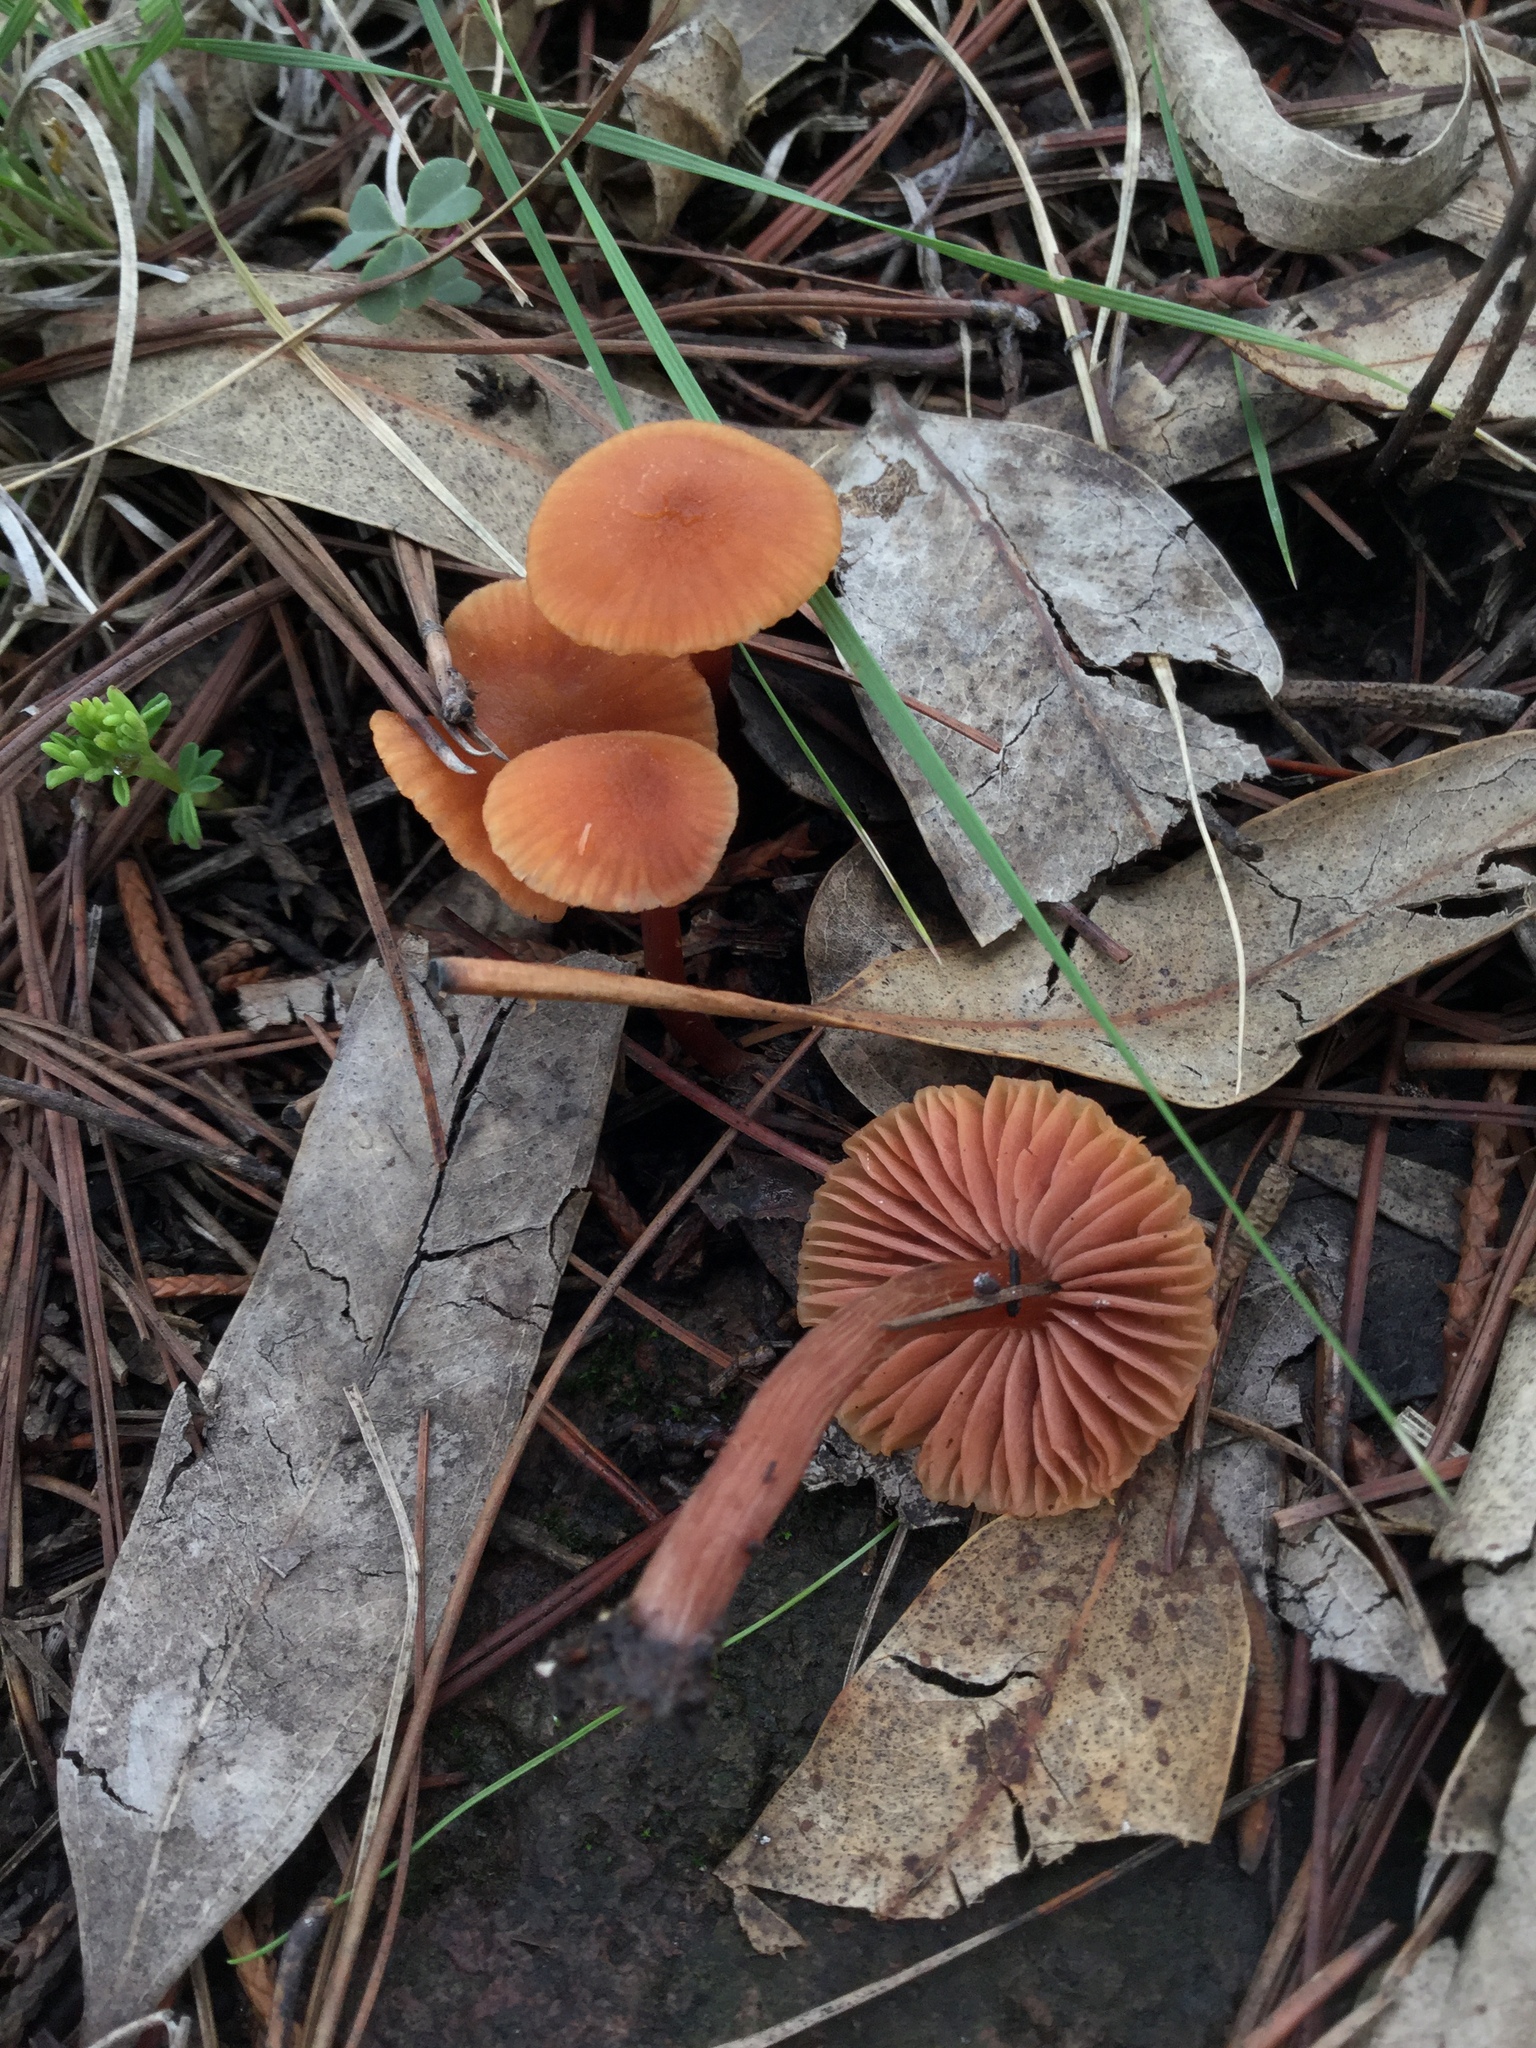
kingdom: Fungi
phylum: Basidiomycota
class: Agaricomycetes
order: Agaricales
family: Hydnangiaceae
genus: Laccaria
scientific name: Laccaria laccata
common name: Deceiver
